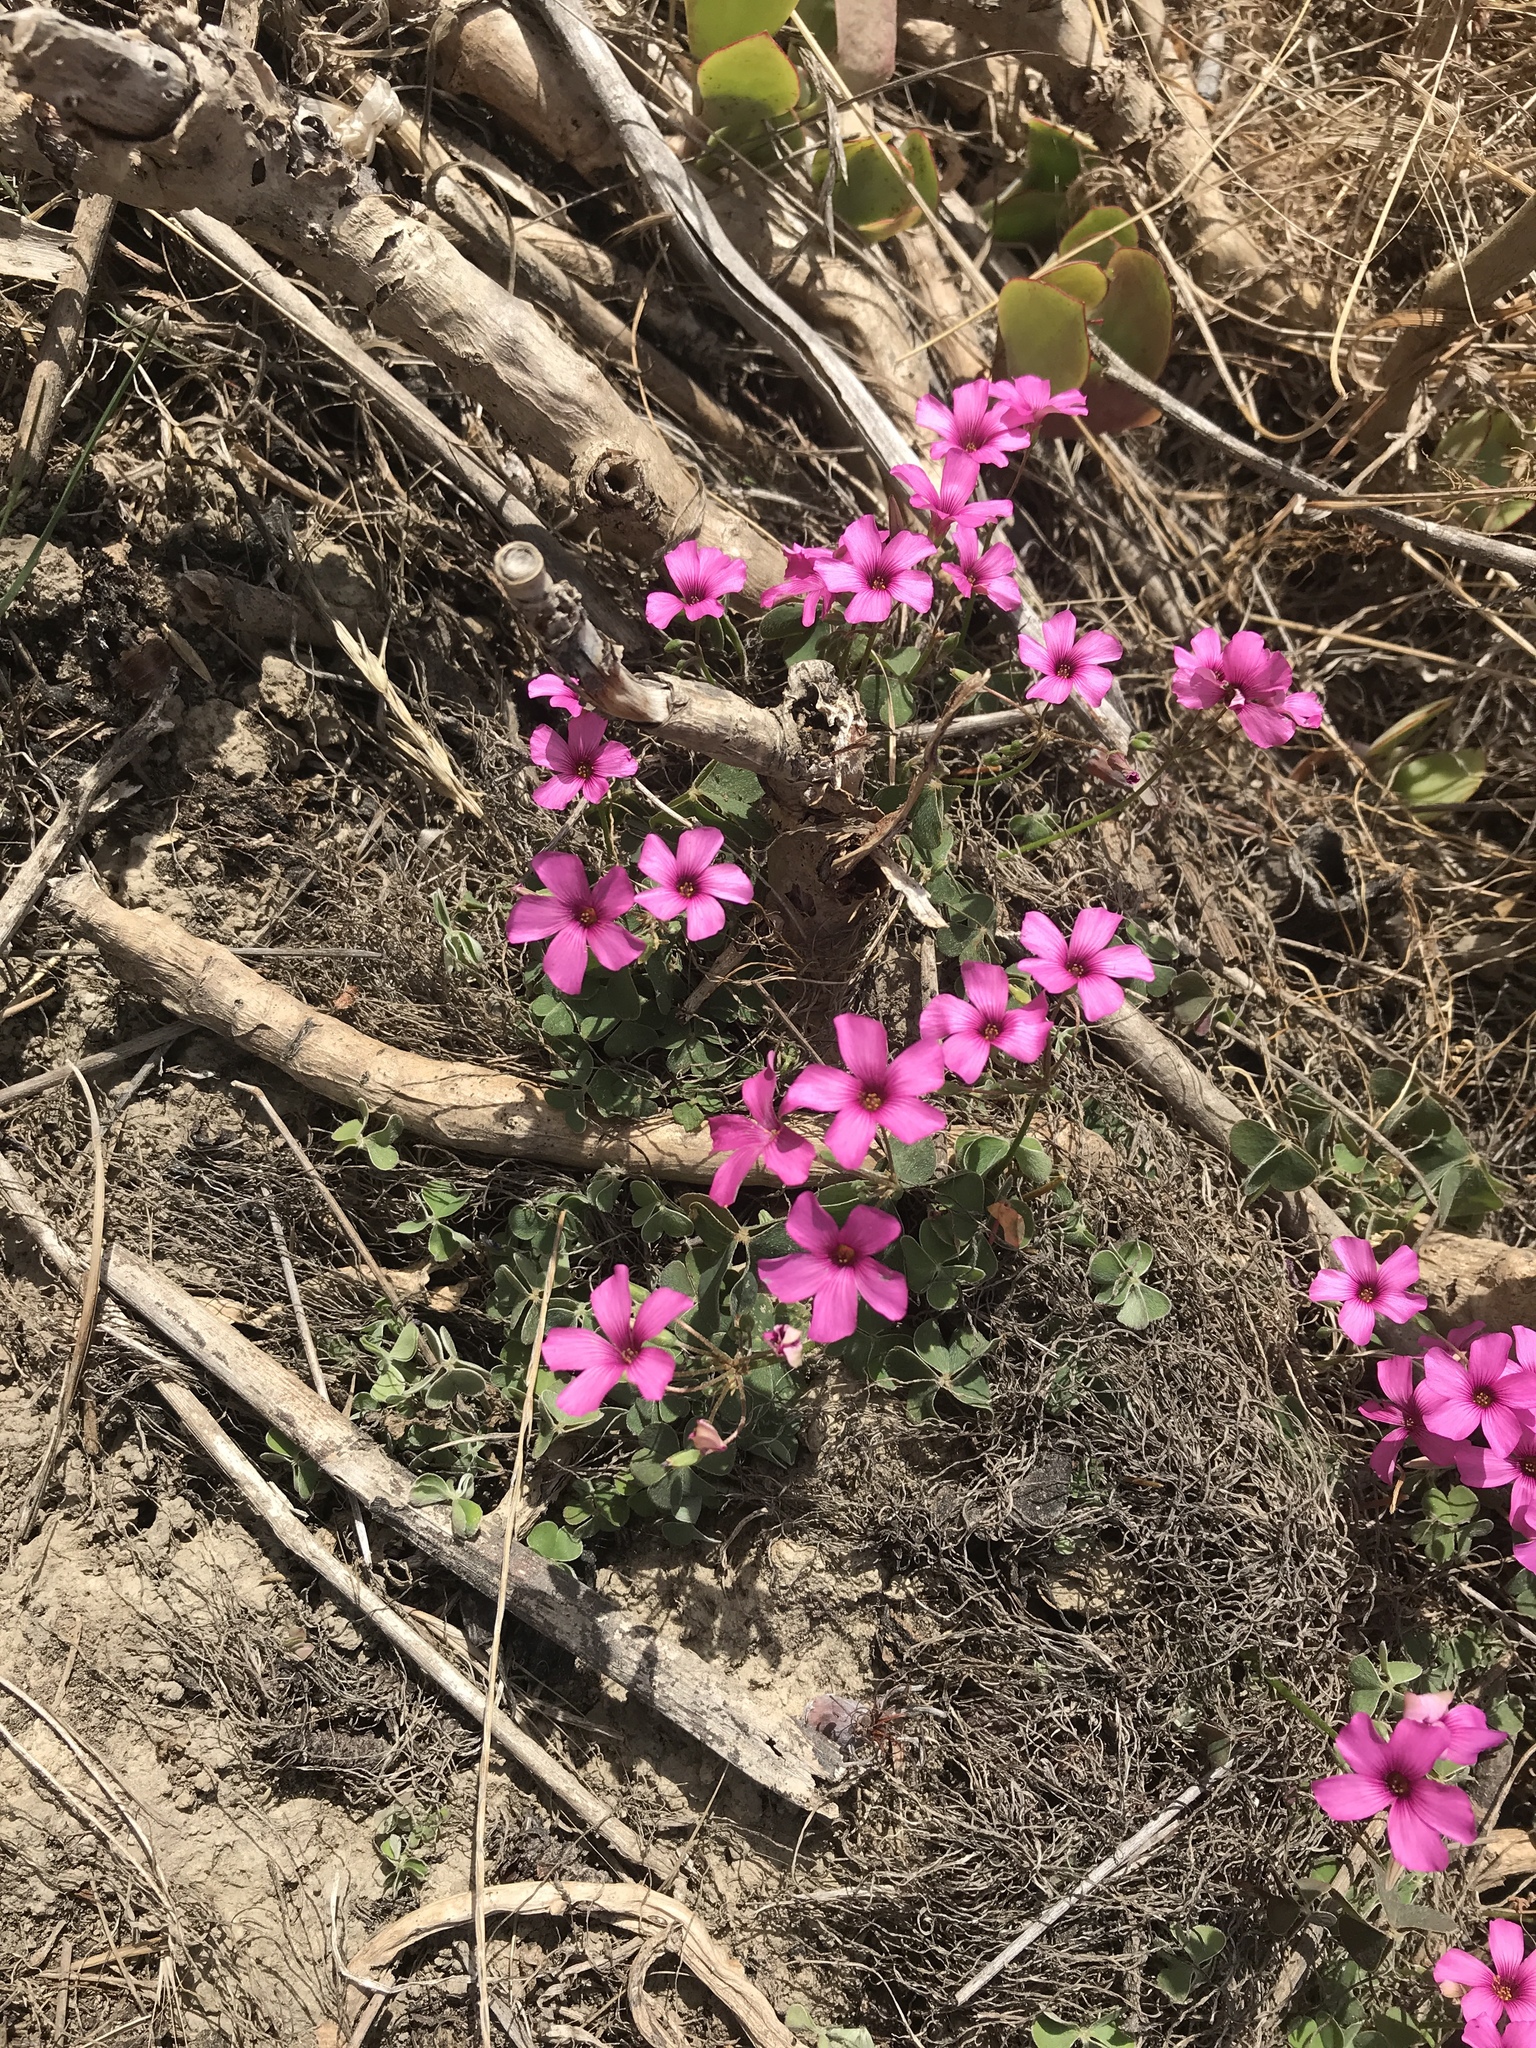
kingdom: Plantae
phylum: Tracheophyta
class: Magnoliopsida
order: Oxalidales
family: Oxalidaceae
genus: Oxalis
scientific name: Oxalis articulata
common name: Pink-sorrel
